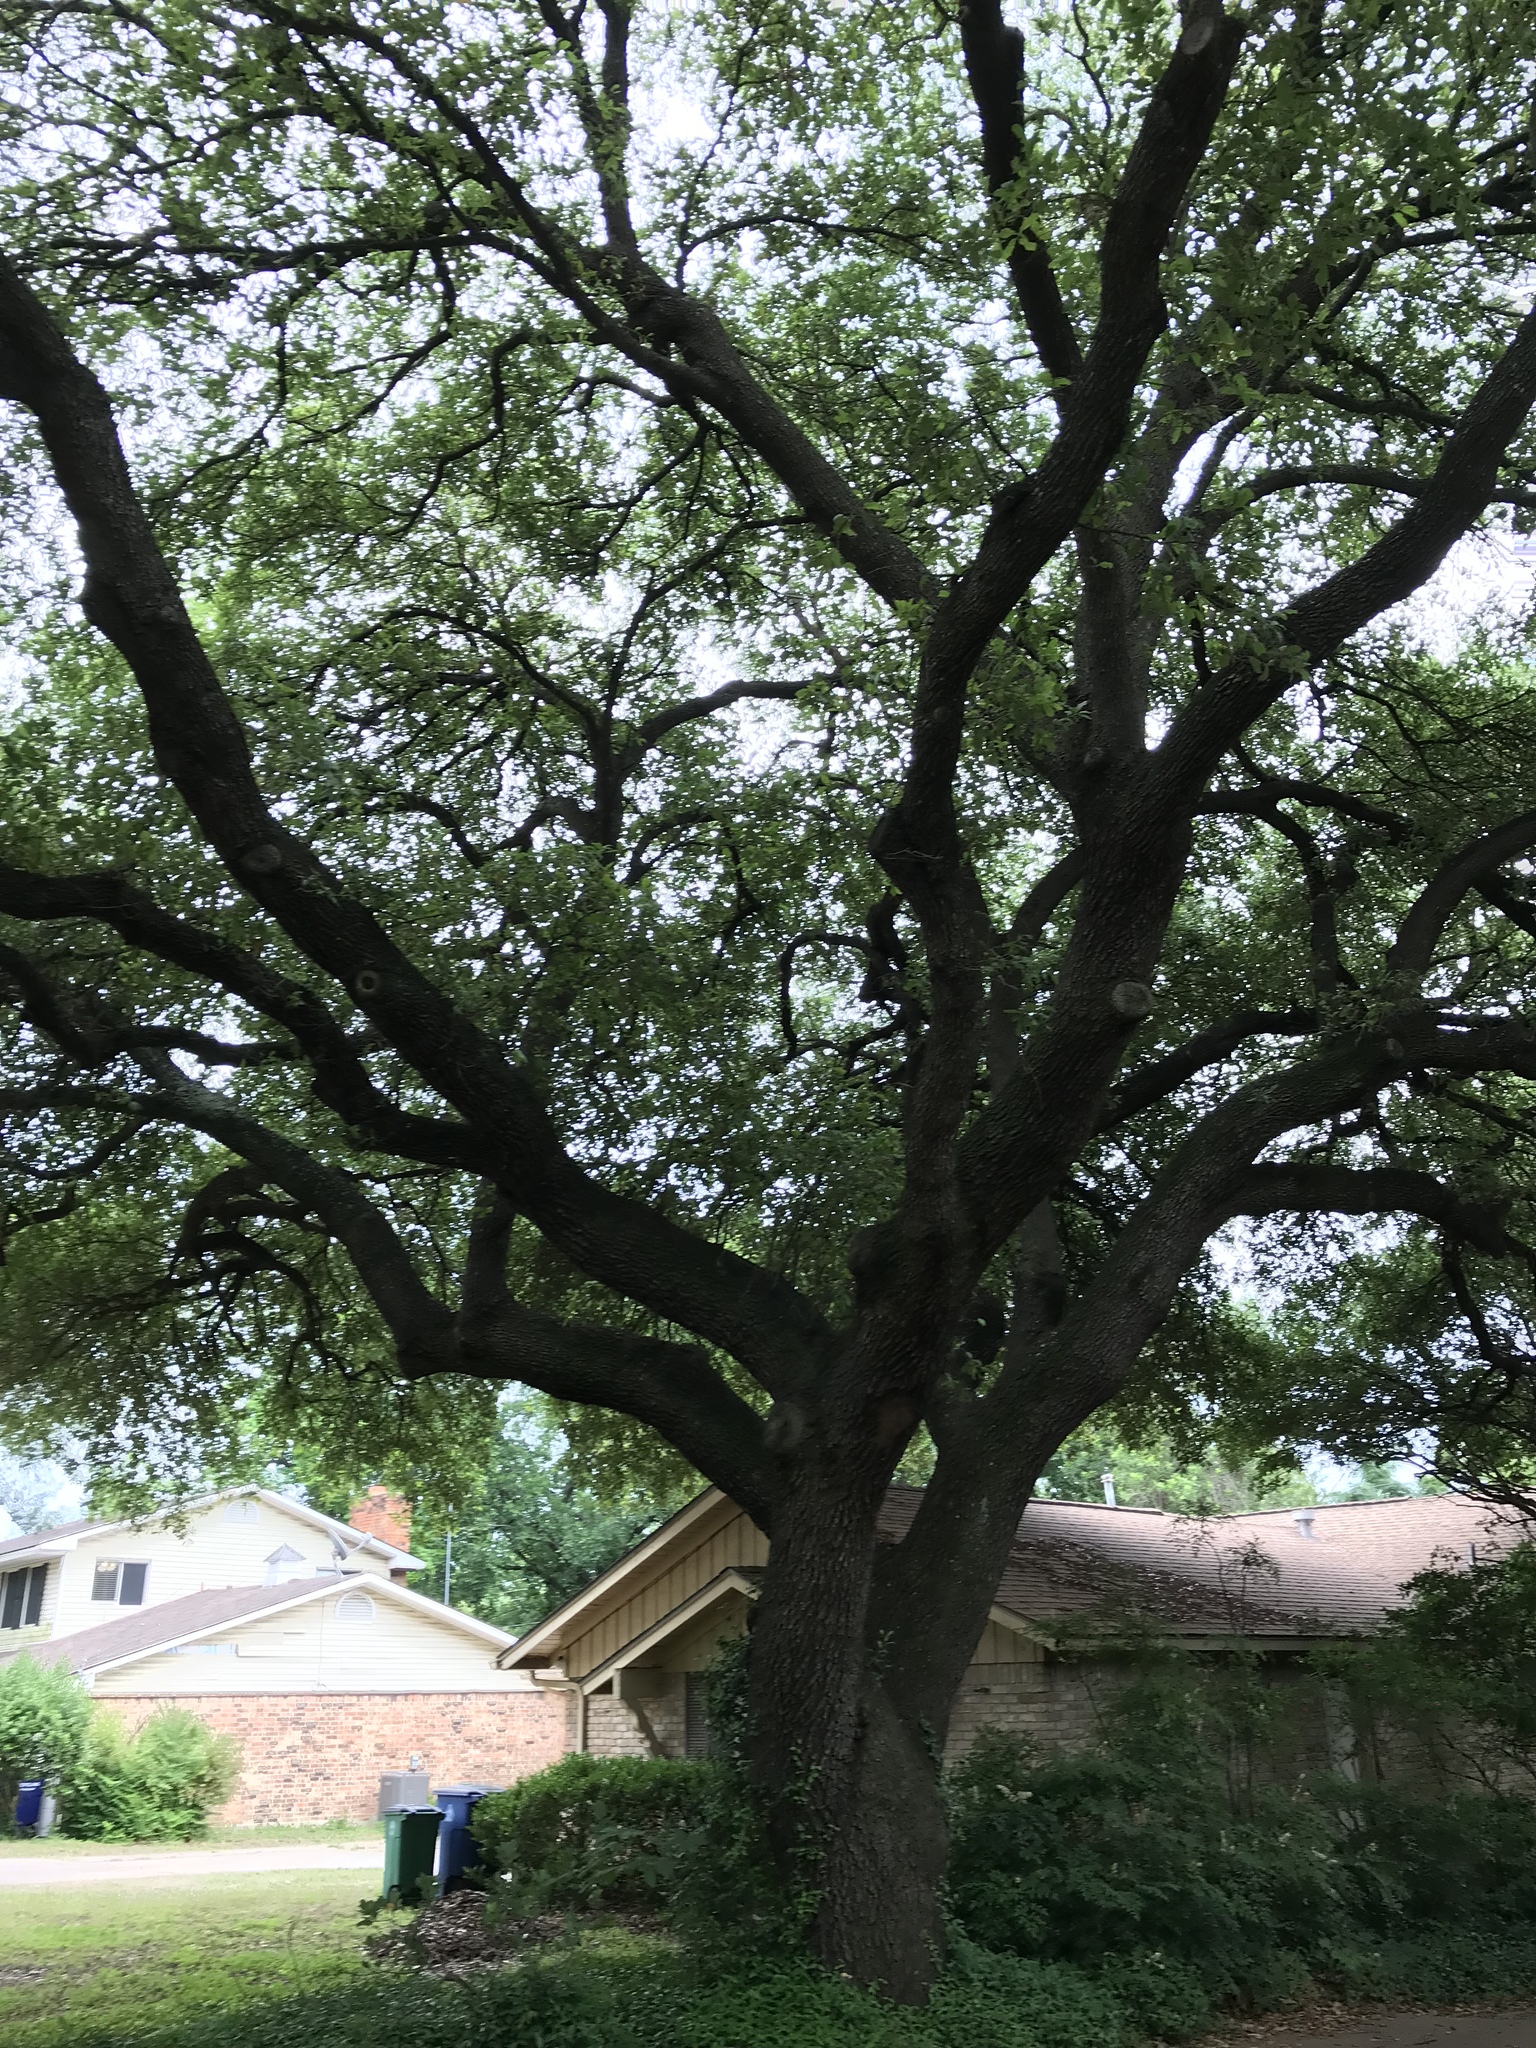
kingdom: Plantae
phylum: Tracheophyta
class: Magnoliopsida
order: Fagales
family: Fagaceae
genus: Quercus
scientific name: Quercus fusiformis
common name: Texas live oak
